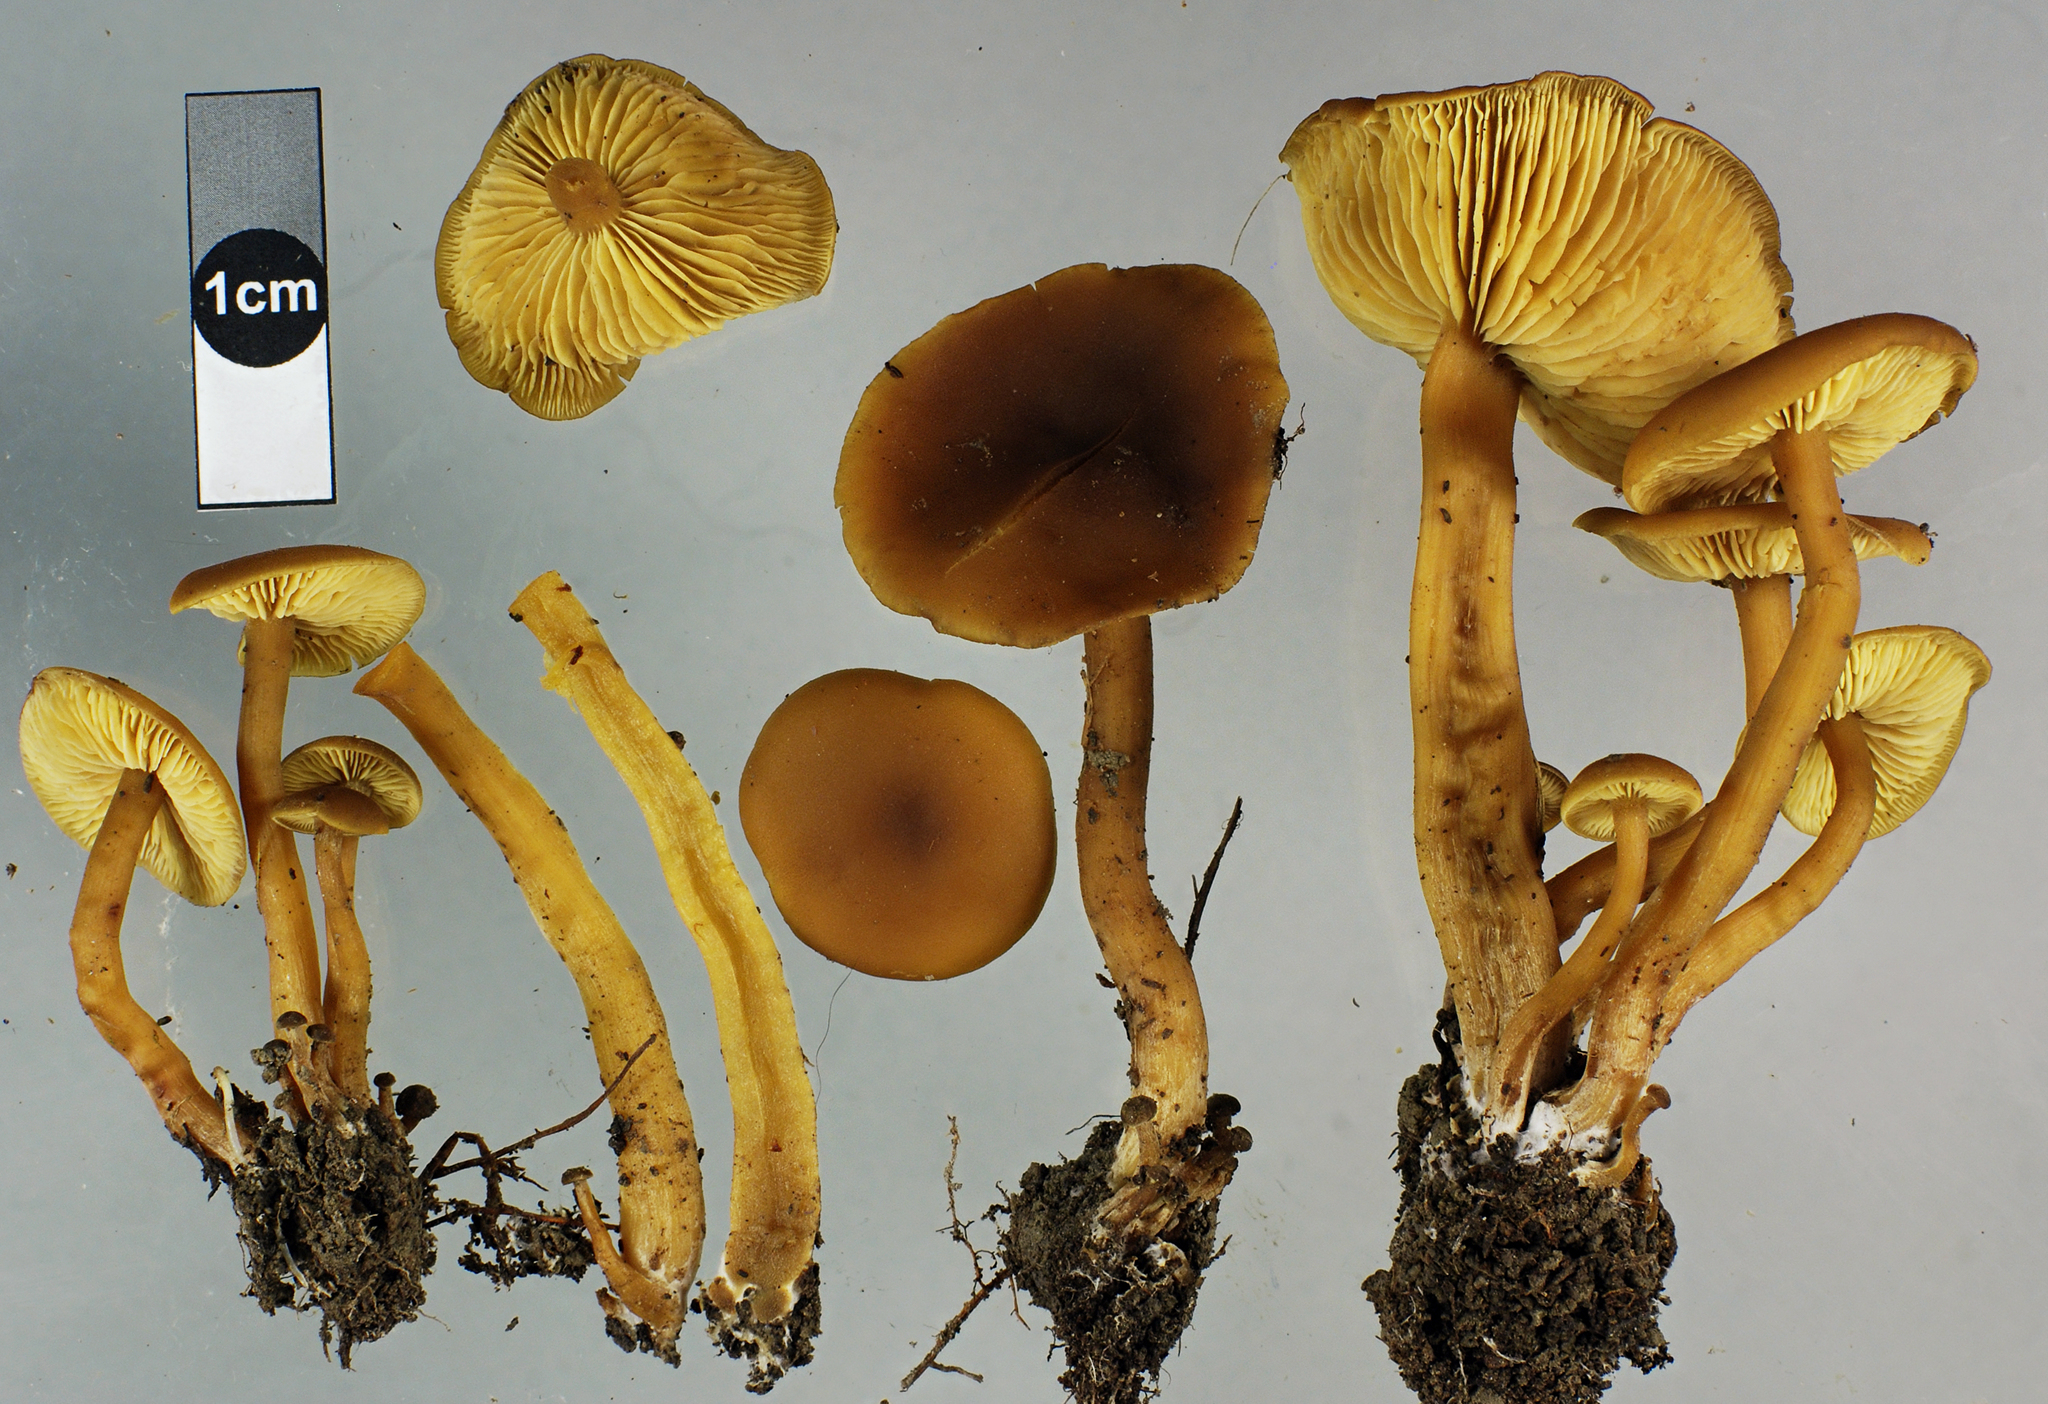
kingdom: Fungi
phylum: Basidiomycota
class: Agaricomycetes
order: Agaricales
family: Callistosporiaceae
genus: Callistosporium
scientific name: Callistosporium
